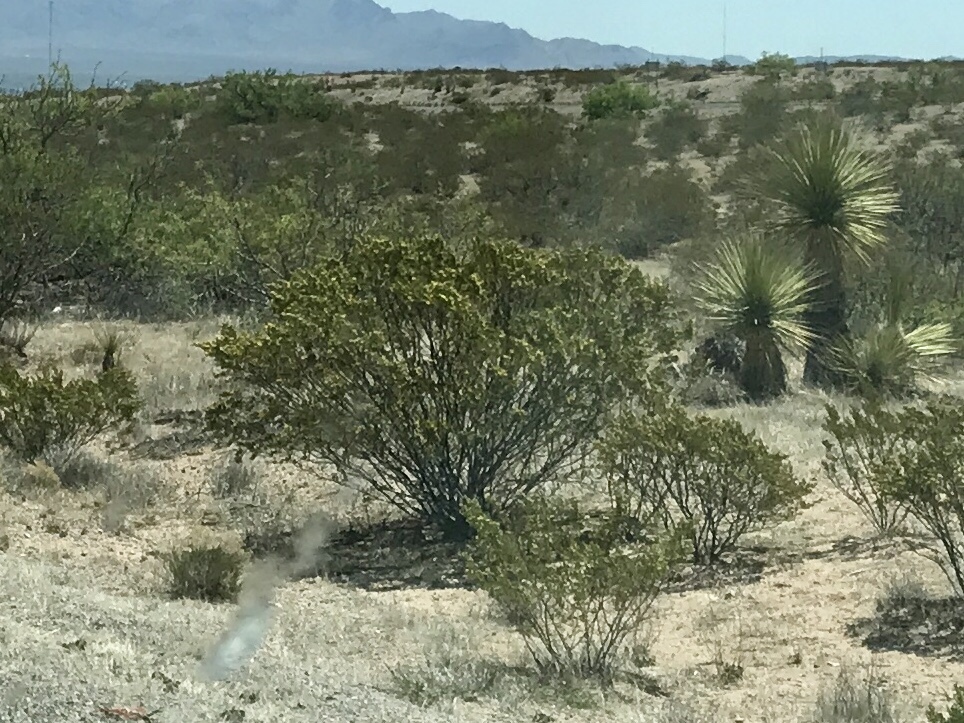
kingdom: Plantae
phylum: Tracheophyta
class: Magnoliopsida
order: Zygophyllales
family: Zygophyllaceae
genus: Larrea
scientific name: Larrea tridentata
